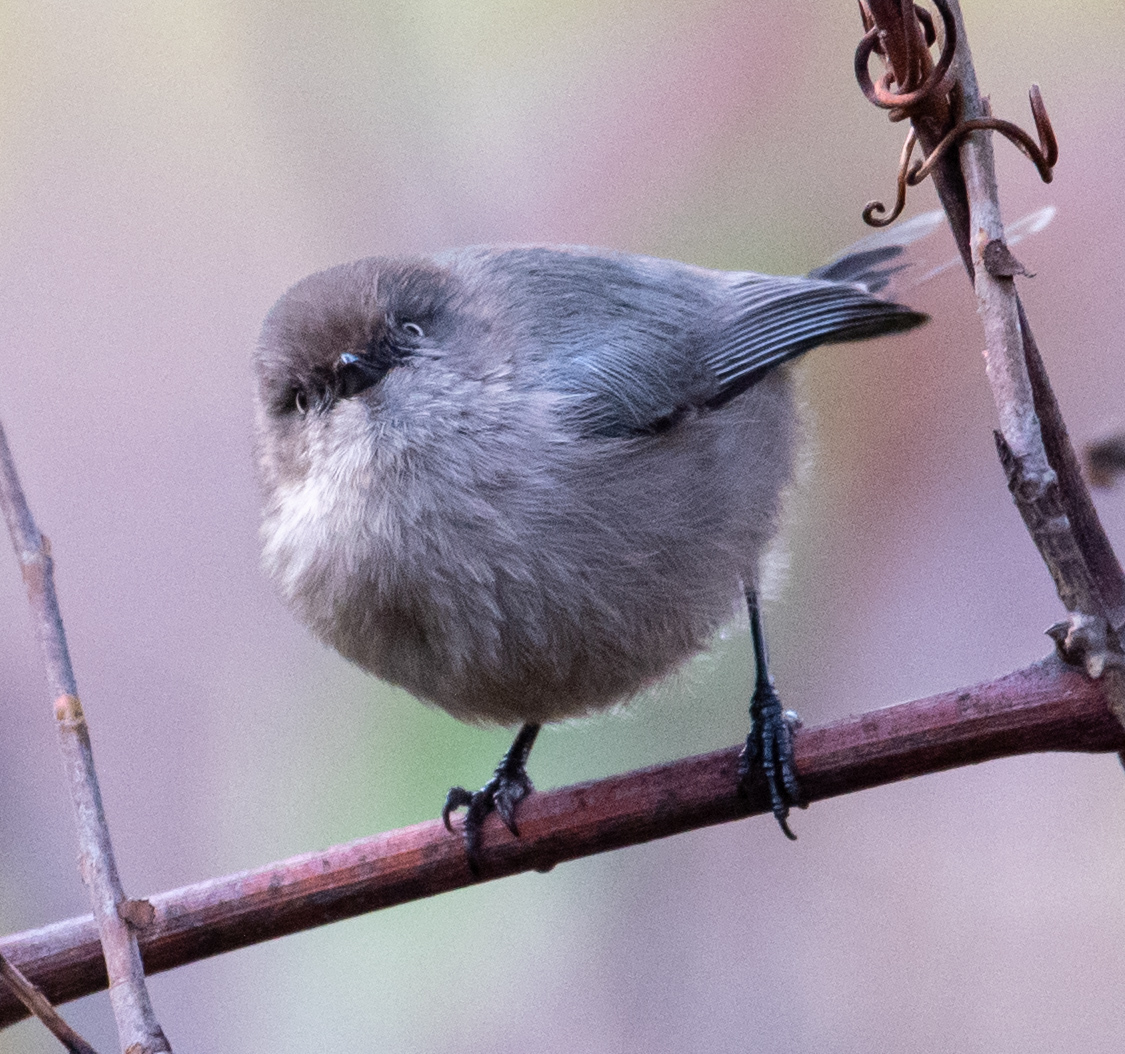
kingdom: Animalia
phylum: Chordata
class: Aves
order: Passeriformes
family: Aegithalidae
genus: Psaltriparus
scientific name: Psaltriparus minimus
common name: American bushtit
